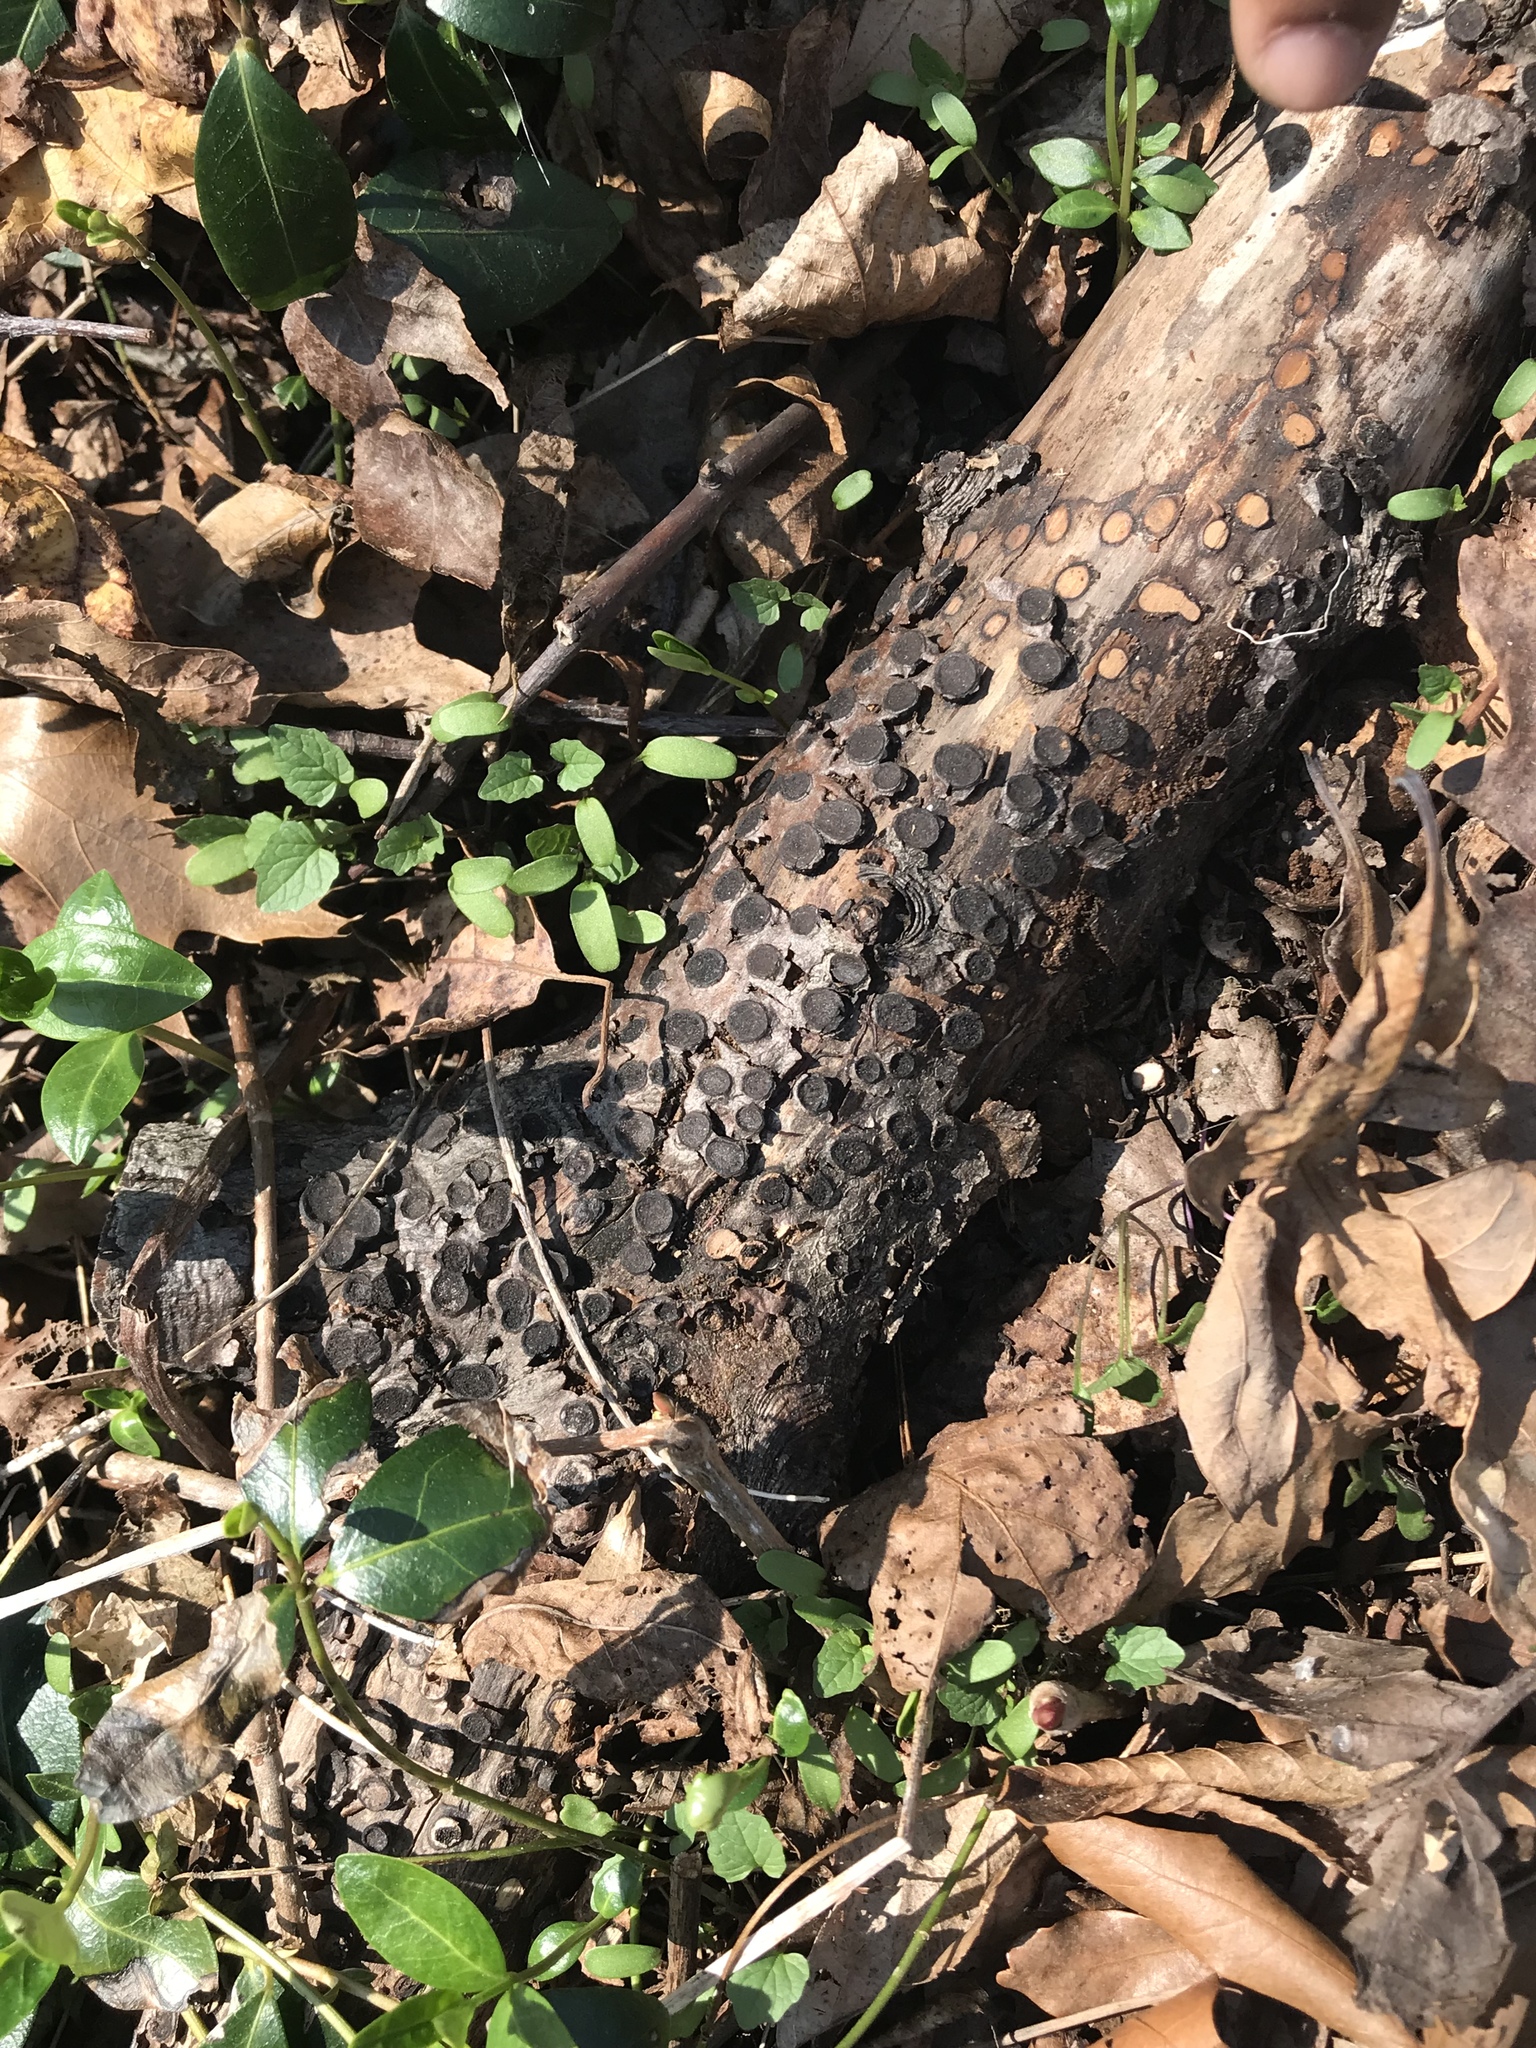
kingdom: Fungi
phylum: Ascomycota
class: Sordariomycetes
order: Xylariales
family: Graphostromataceae
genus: Biscogniauxia
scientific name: Biscogniauxia marginata
